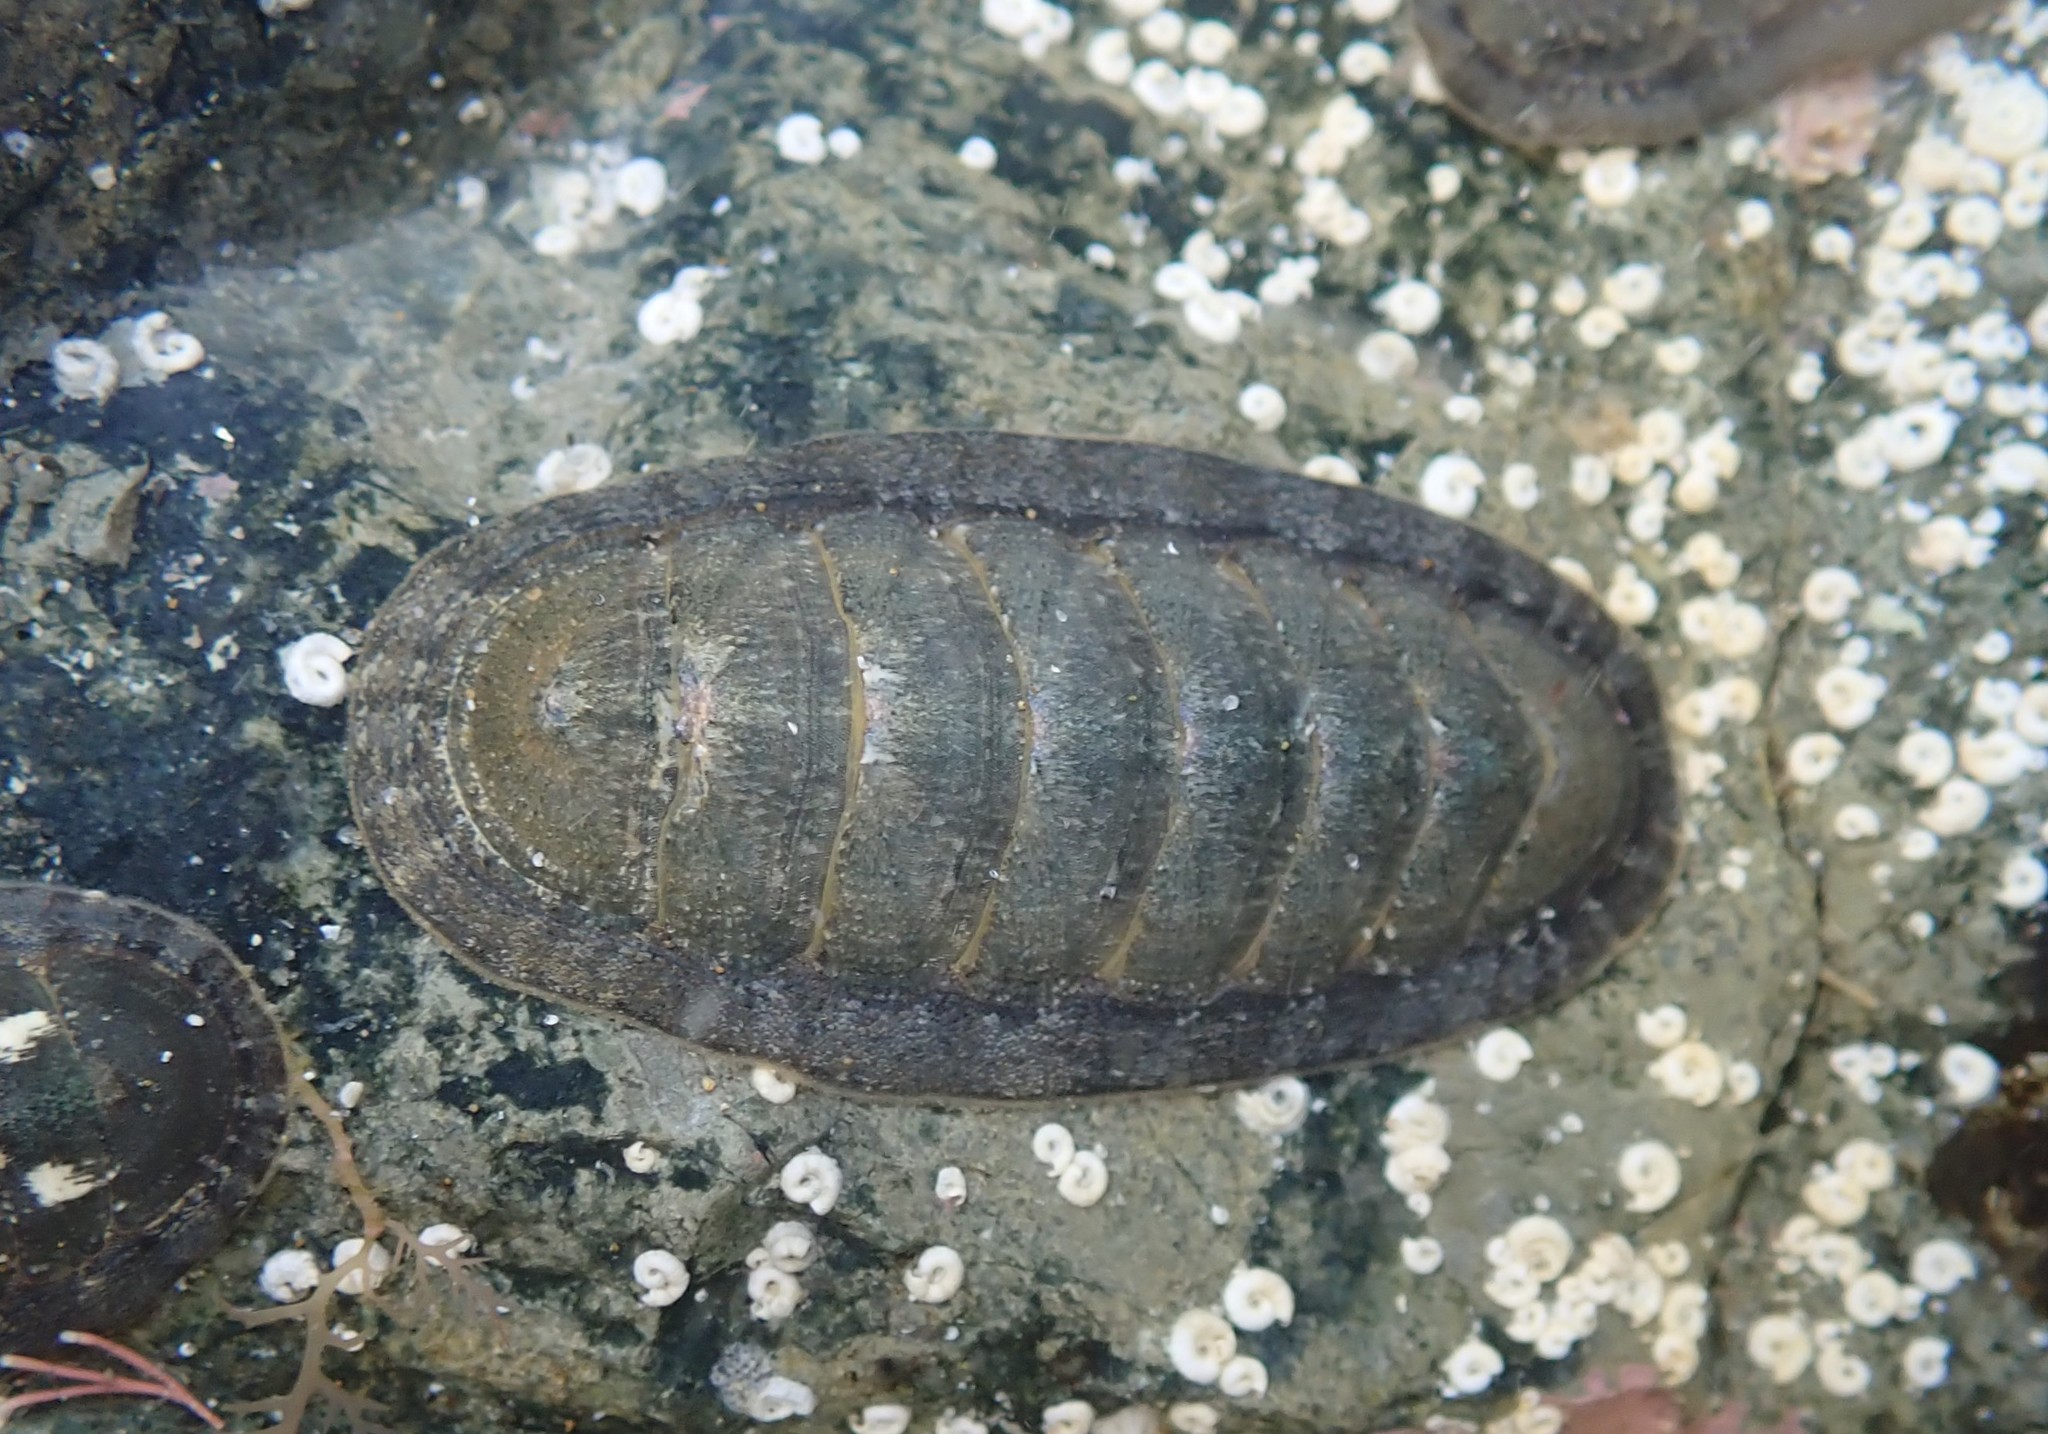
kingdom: Animalia
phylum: Mollusca
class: Polyplacophora
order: Chitonida
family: Ischnochitonidae
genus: Ischnochiton
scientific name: Ischnochiton maorianus
